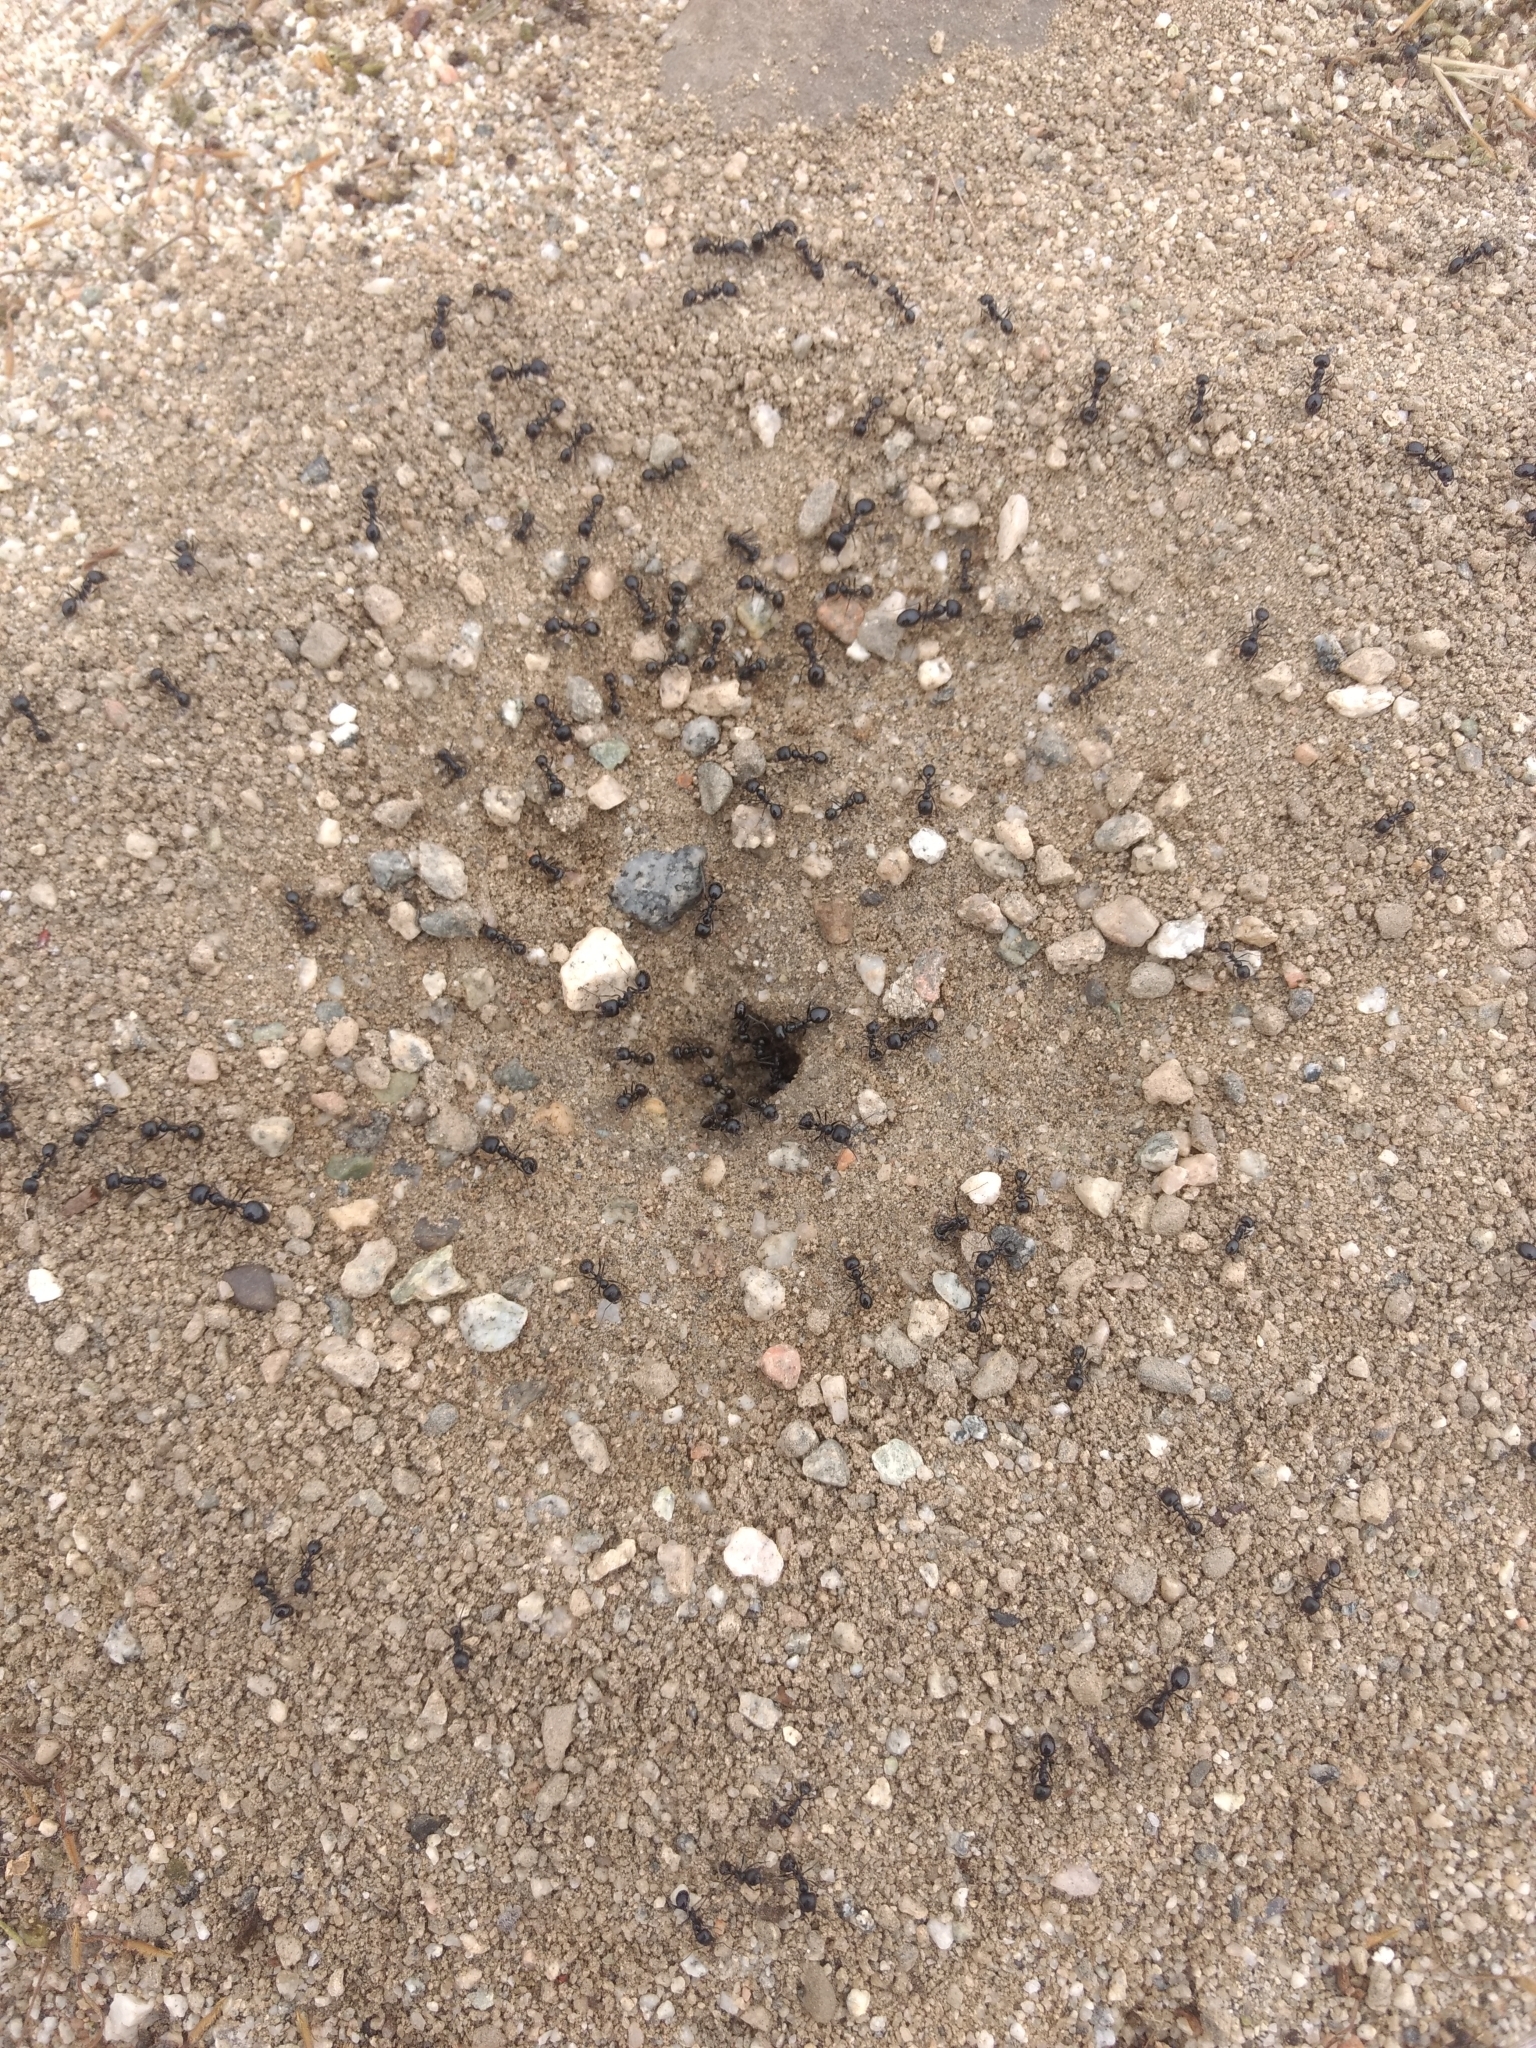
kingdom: Animalia
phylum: Arthropoda
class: Insecta
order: Hymenoptera
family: Formicidae
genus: Messor
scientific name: Messor pergandei
